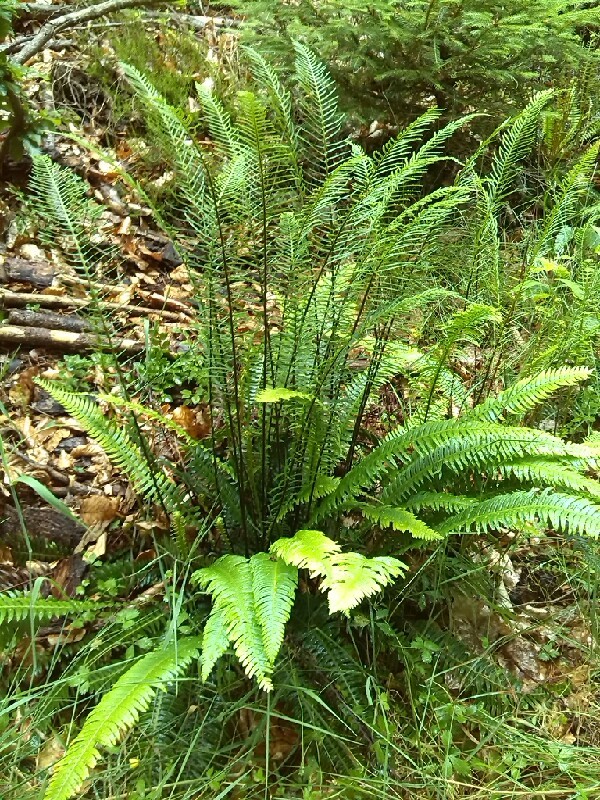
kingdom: Plantae
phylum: Tracheophyta
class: Polypodiopsida
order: Polypodiales
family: Blechnaceae
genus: Struthiopteris
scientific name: Struthiopteris spicant
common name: Deer fern
